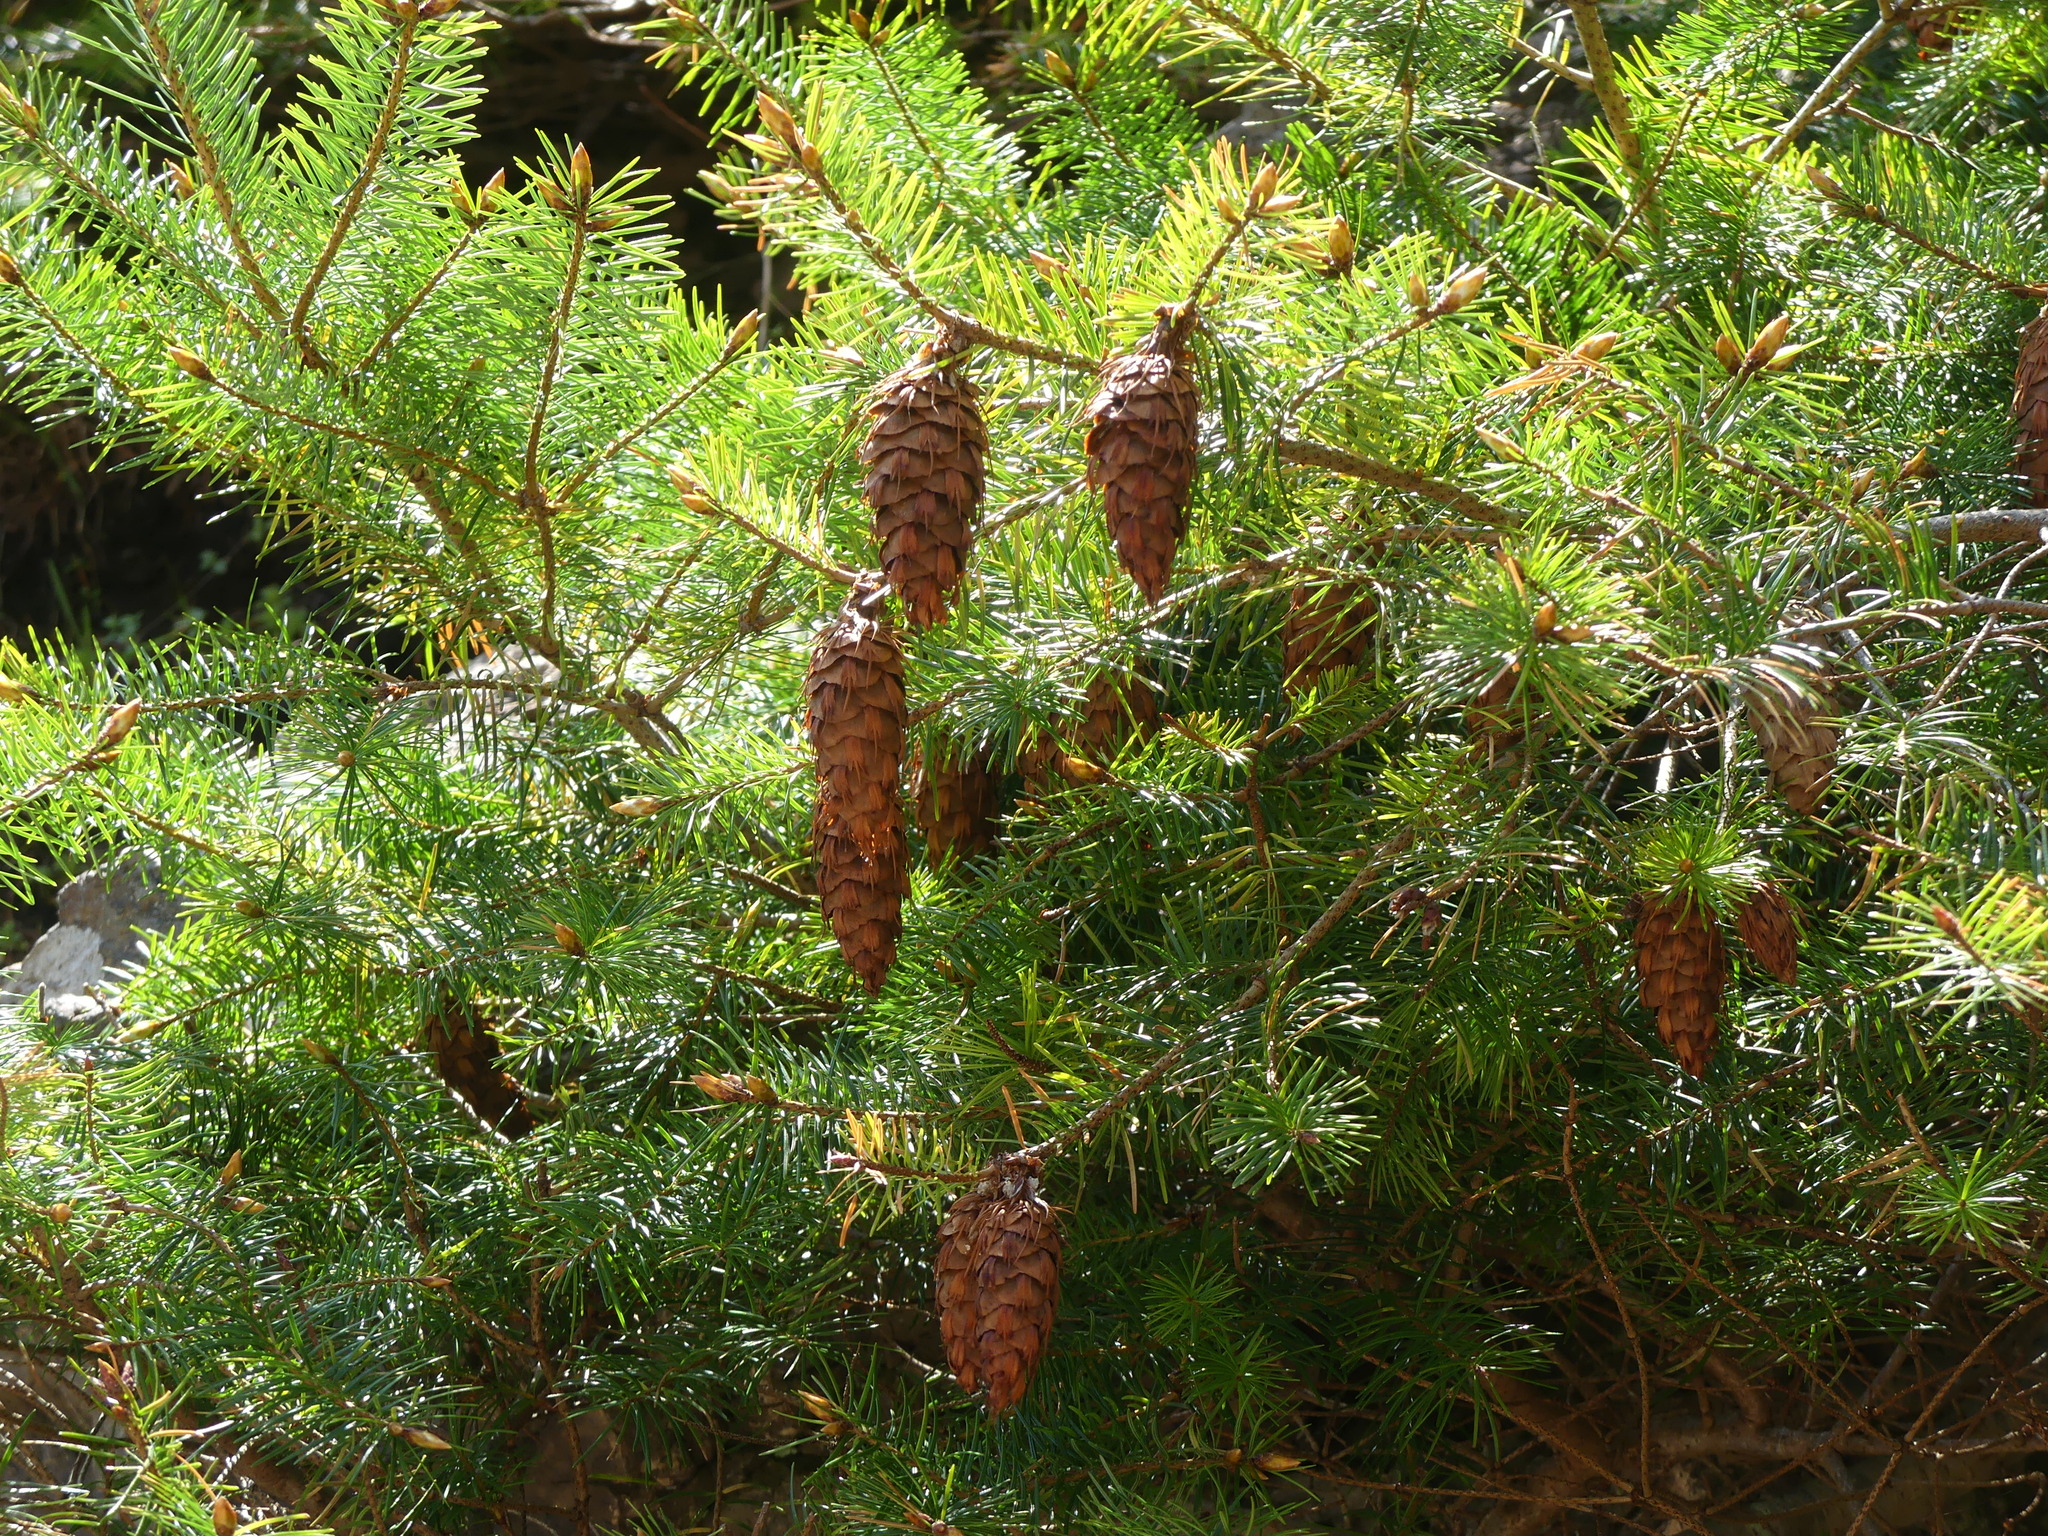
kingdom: Plantae
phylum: Tracheophyta
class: Pinopsida
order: Pinales
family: Pinaceae
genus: Pseudotsuga
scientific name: Pseudotsuga menziesii
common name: Douglas fir
